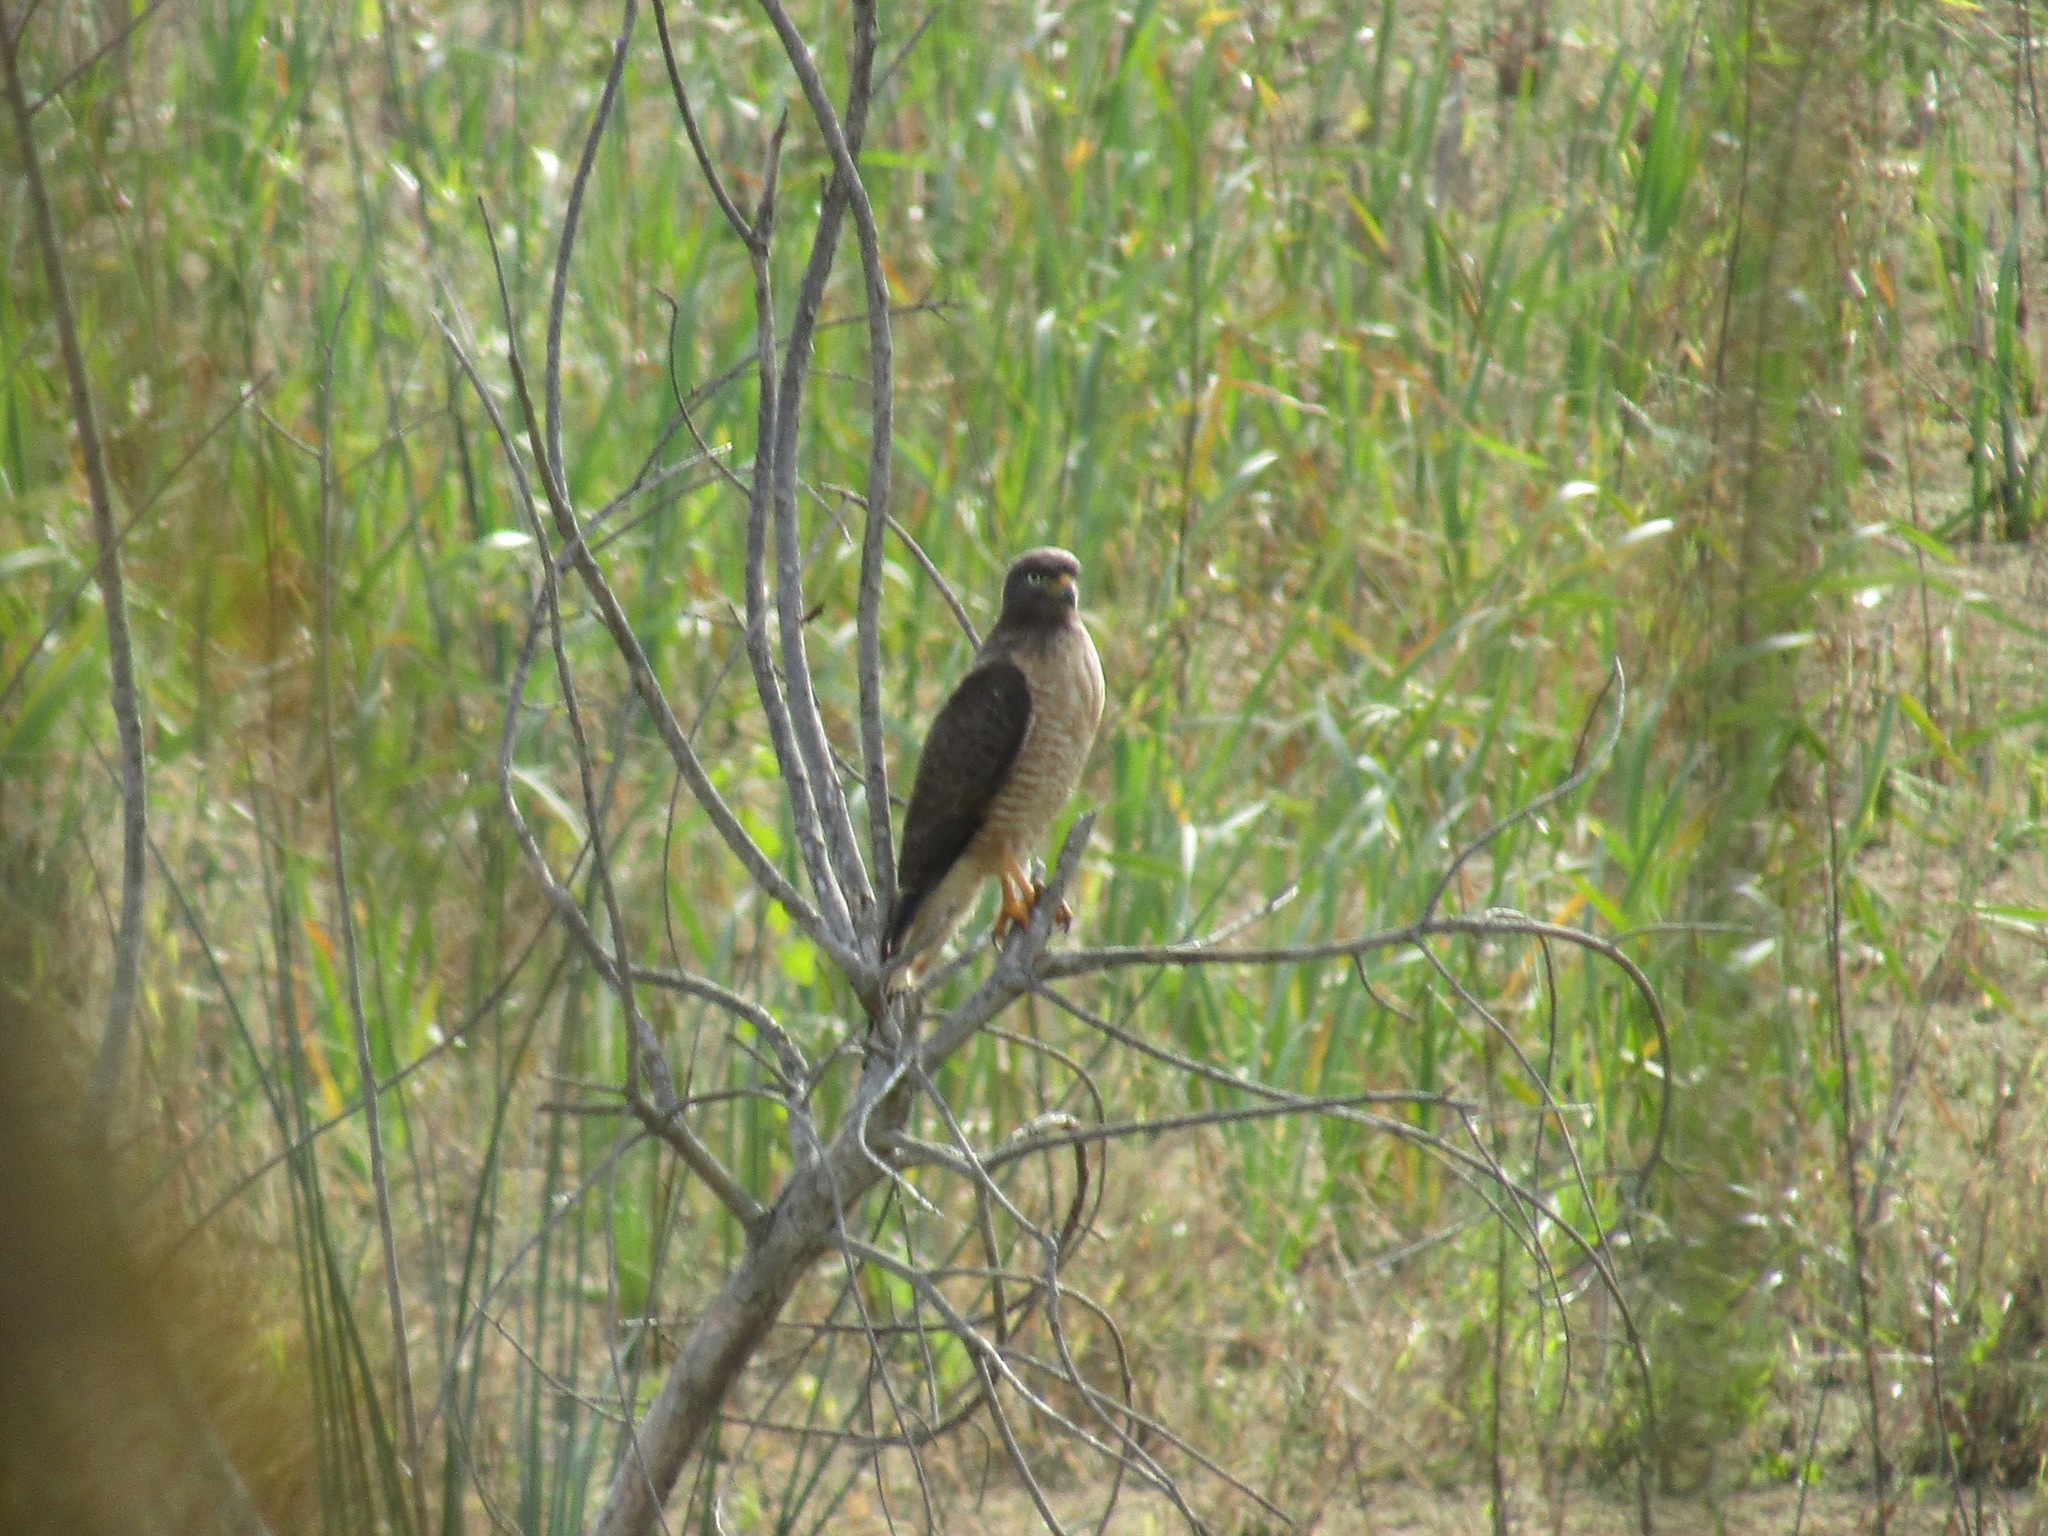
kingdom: Animalia
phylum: Chordata
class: Aves
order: Accipitriformes
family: Accipitridae
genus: Rupornis
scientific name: Rupornis magnirostris
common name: Roadside hawk
